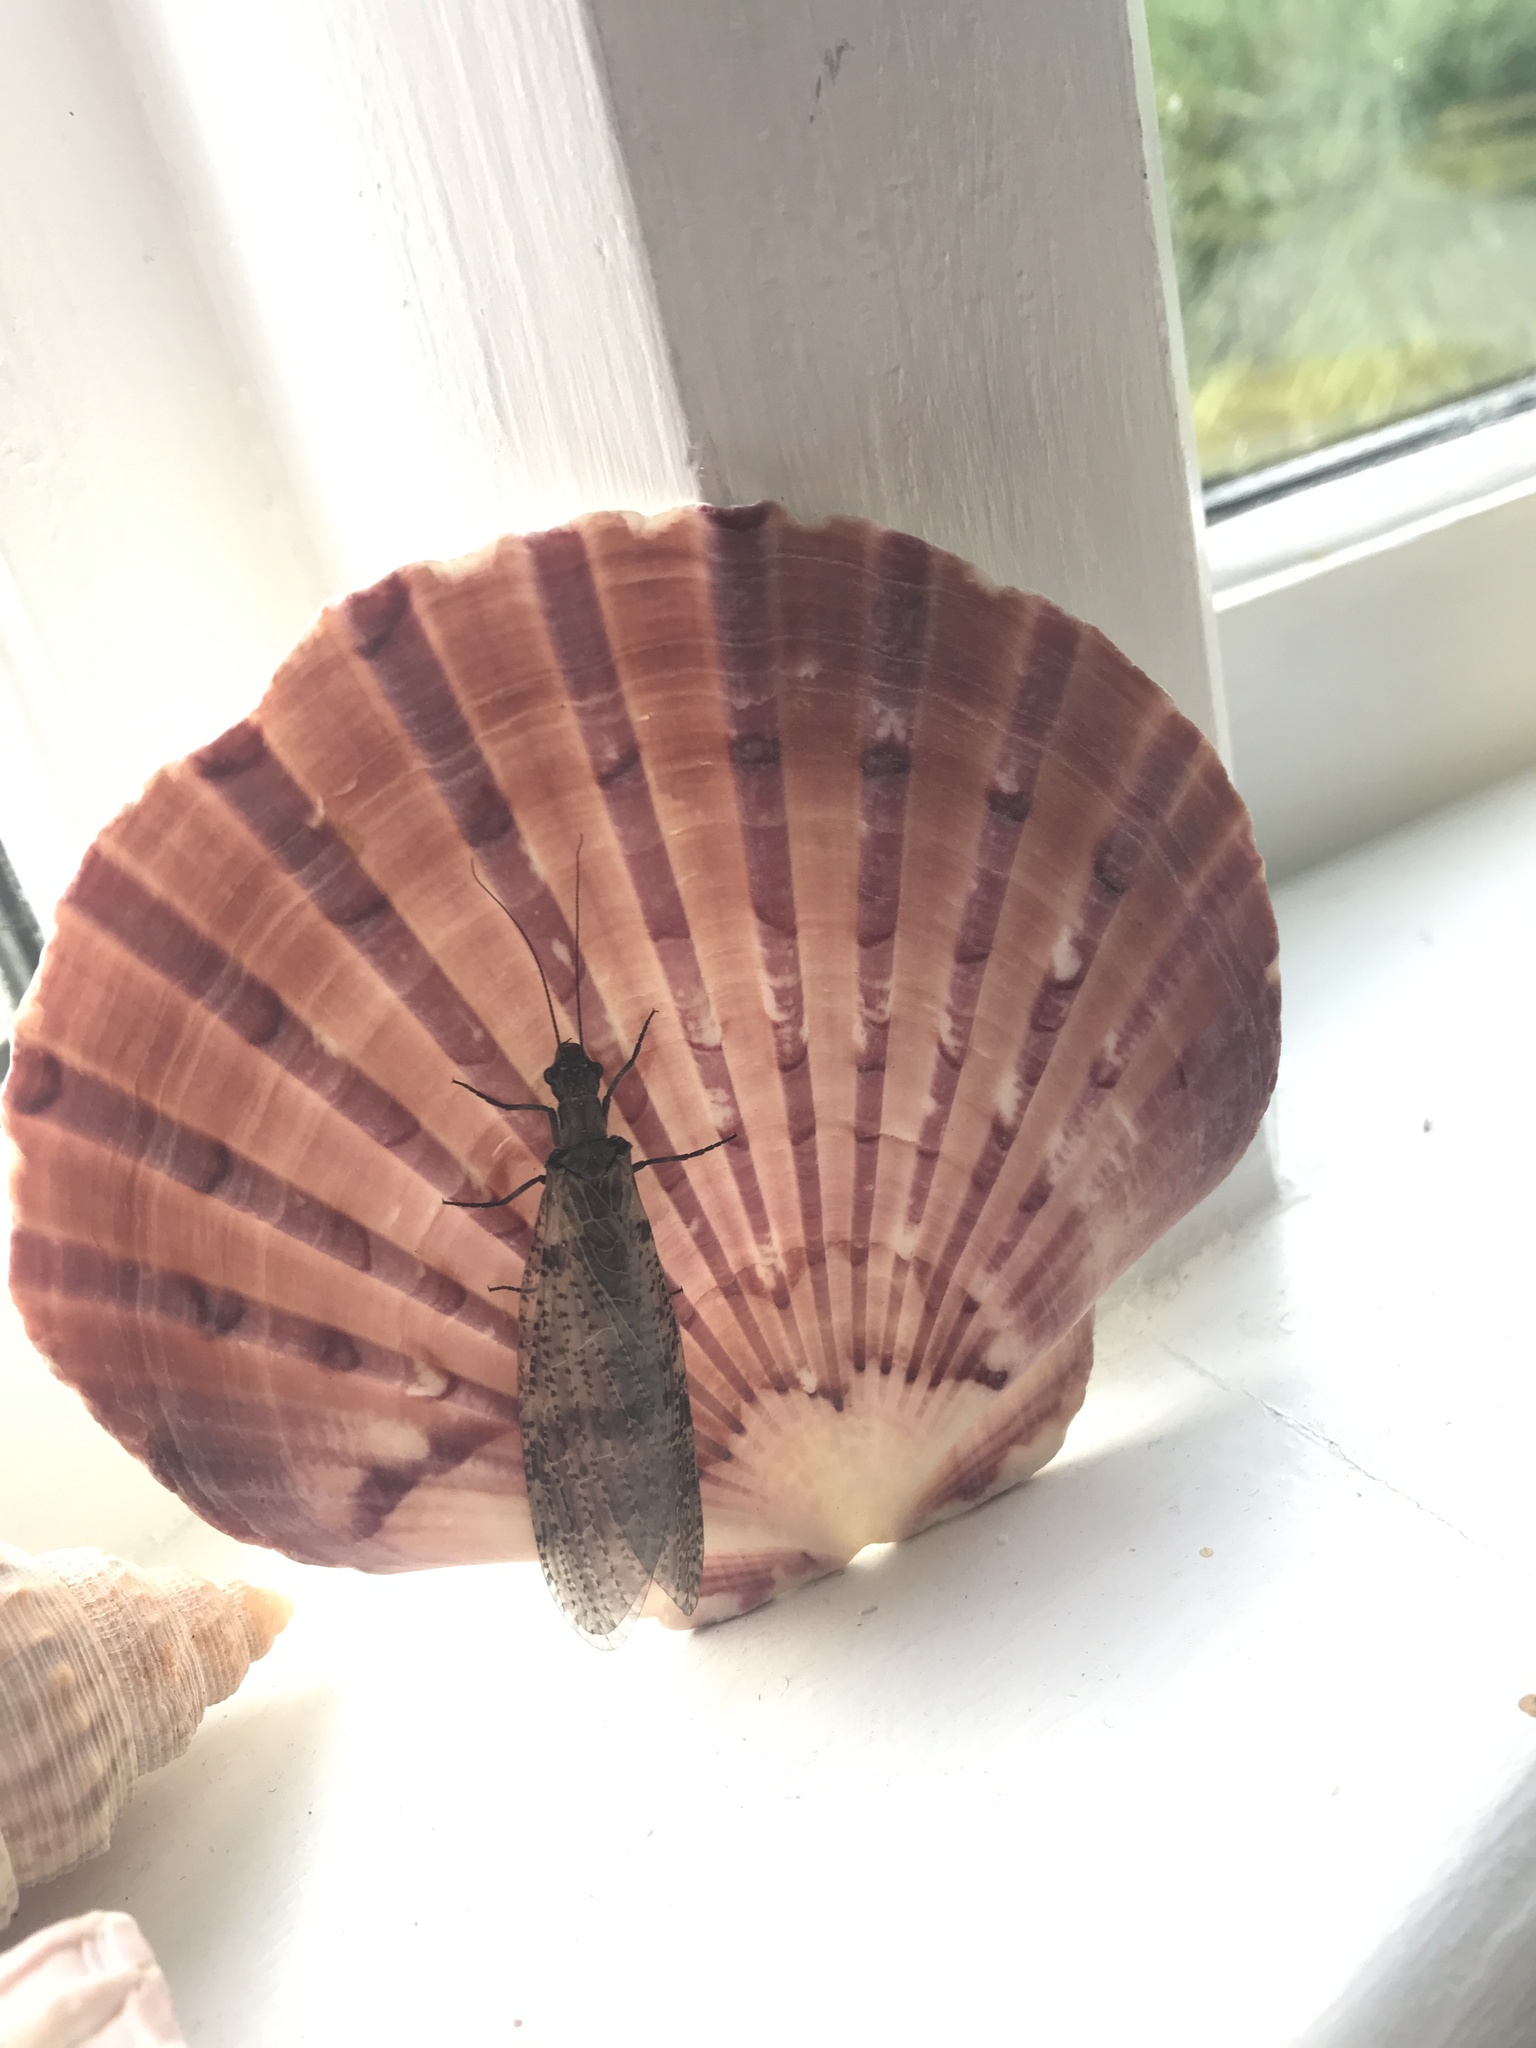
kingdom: Animalia
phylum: Arthropoda
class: Insecta
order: Megaloptera
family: Corydalidae
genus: Archichauliodes
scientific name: Archichauliodes diversus
